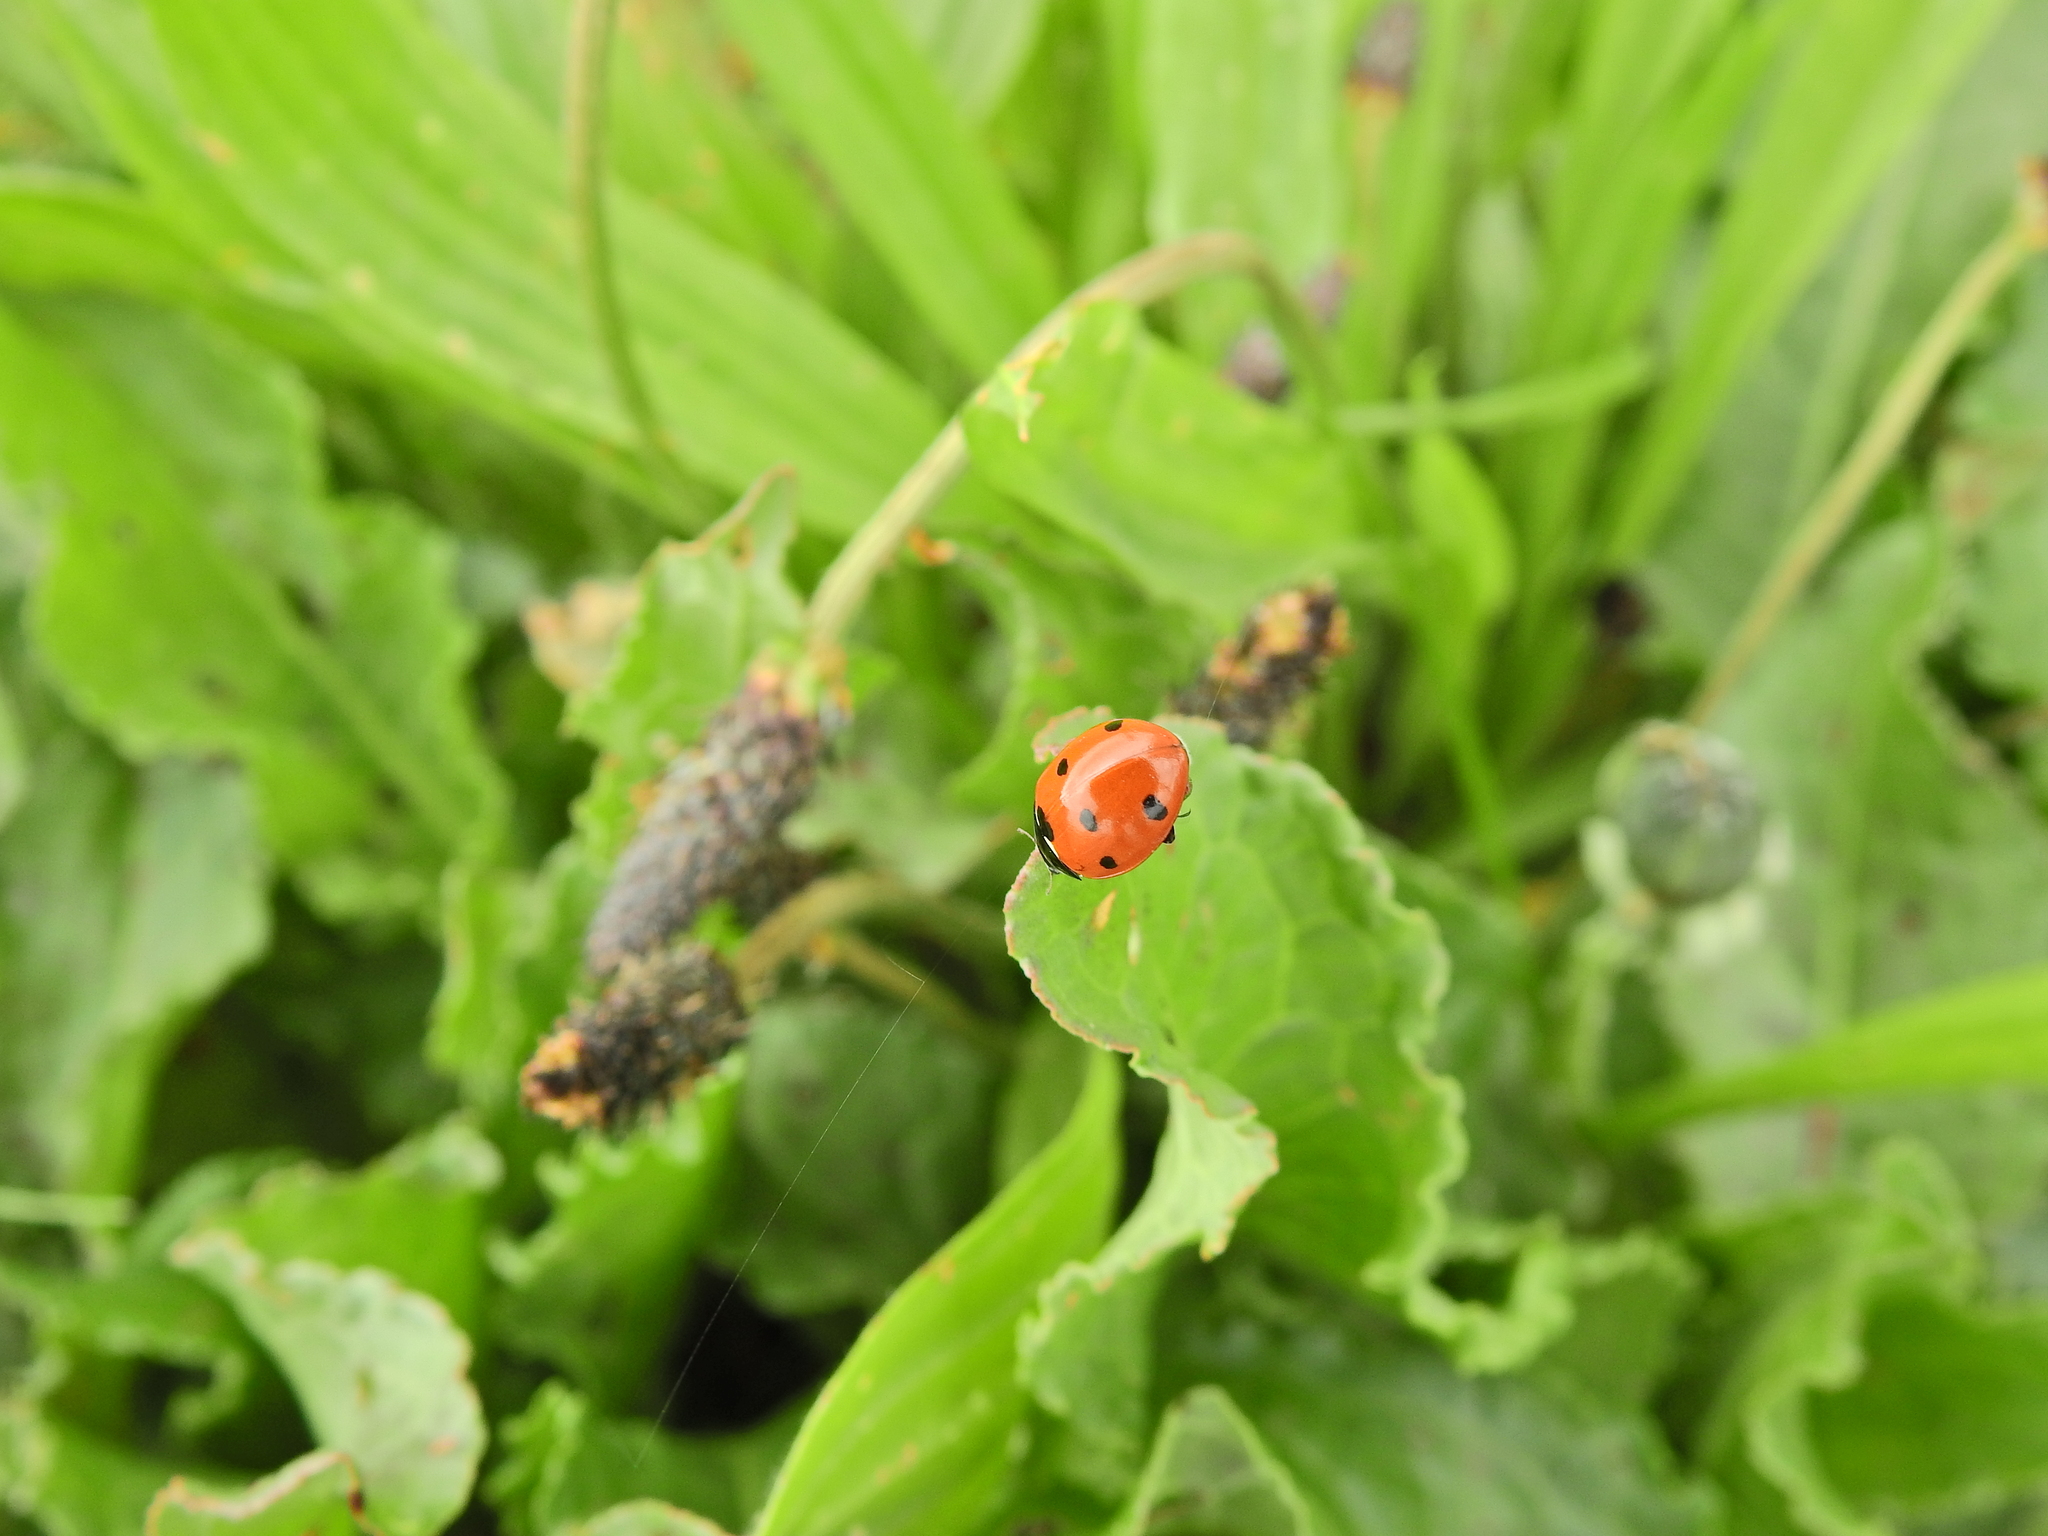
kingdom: Animalia
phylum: Arthropoda
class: Insecta
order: Coleoptera
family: Coccinellidae
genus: Coccinella
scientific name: Coccinella septempunctata
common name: Sevenspotted lady beetle
